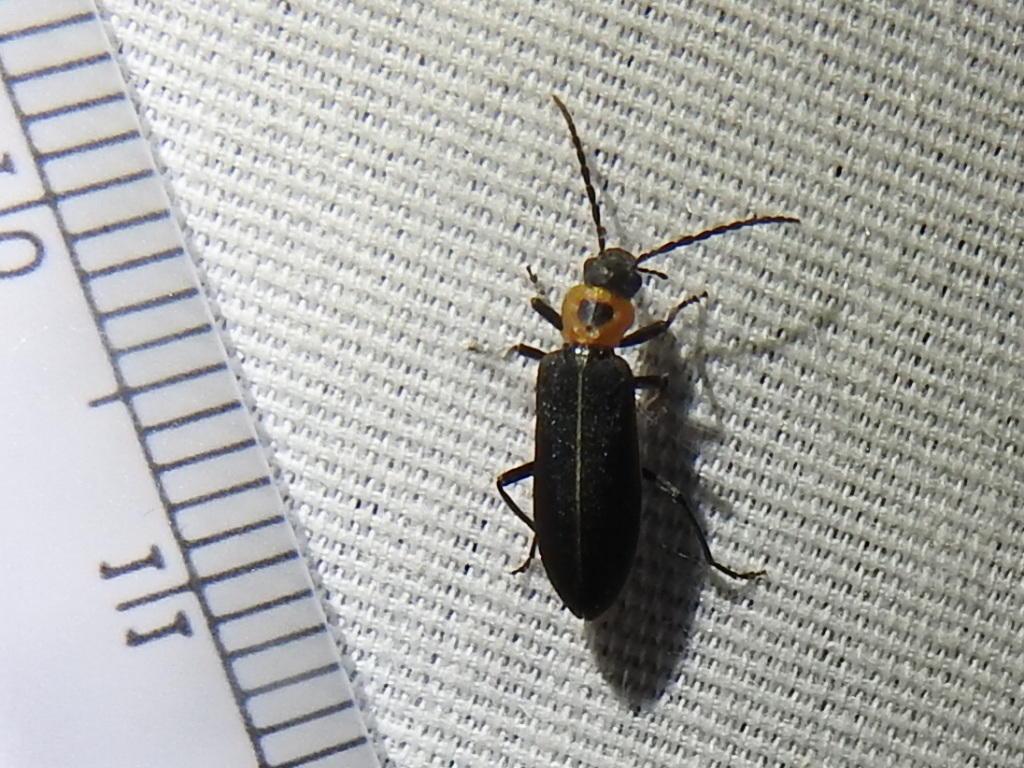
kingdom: Animalia
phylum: Arthropoda
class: Insecta
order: Coleoptera
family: Oedemeridae
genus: Ischnomera
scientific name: Ischnomera
